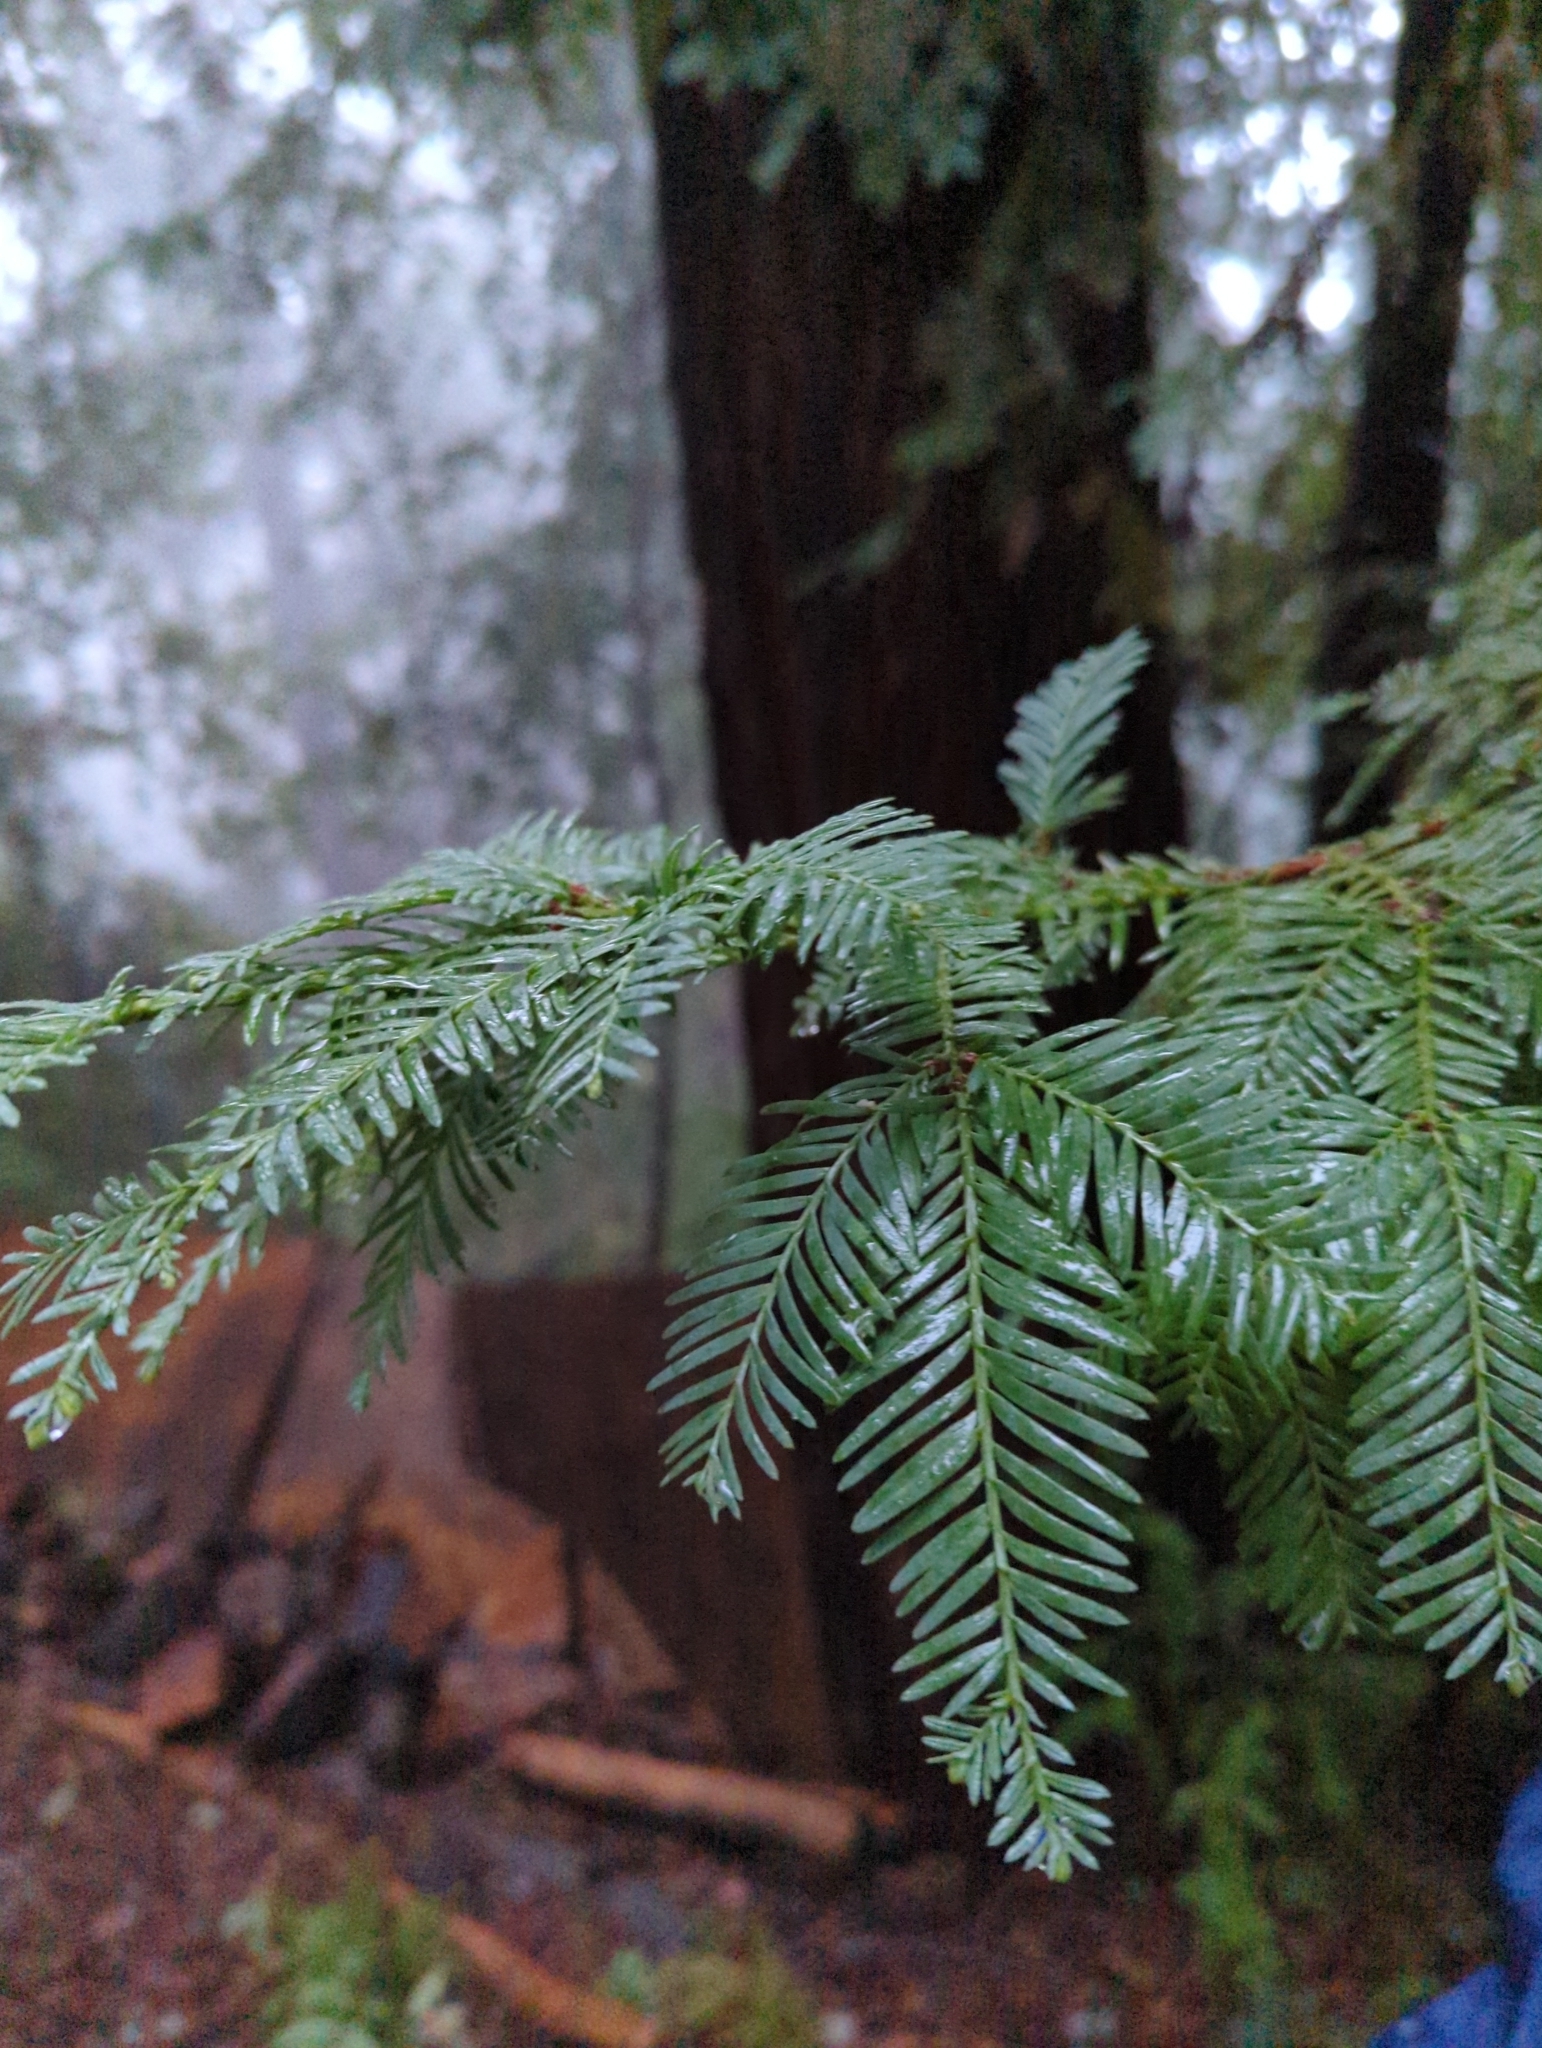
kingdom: Plantae
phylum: Tracheophyta
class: Pinopsida
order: Pinales
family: Cupressaceae
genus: Sequoia
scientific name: Sequoia sempervirens
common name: Coast redwood
